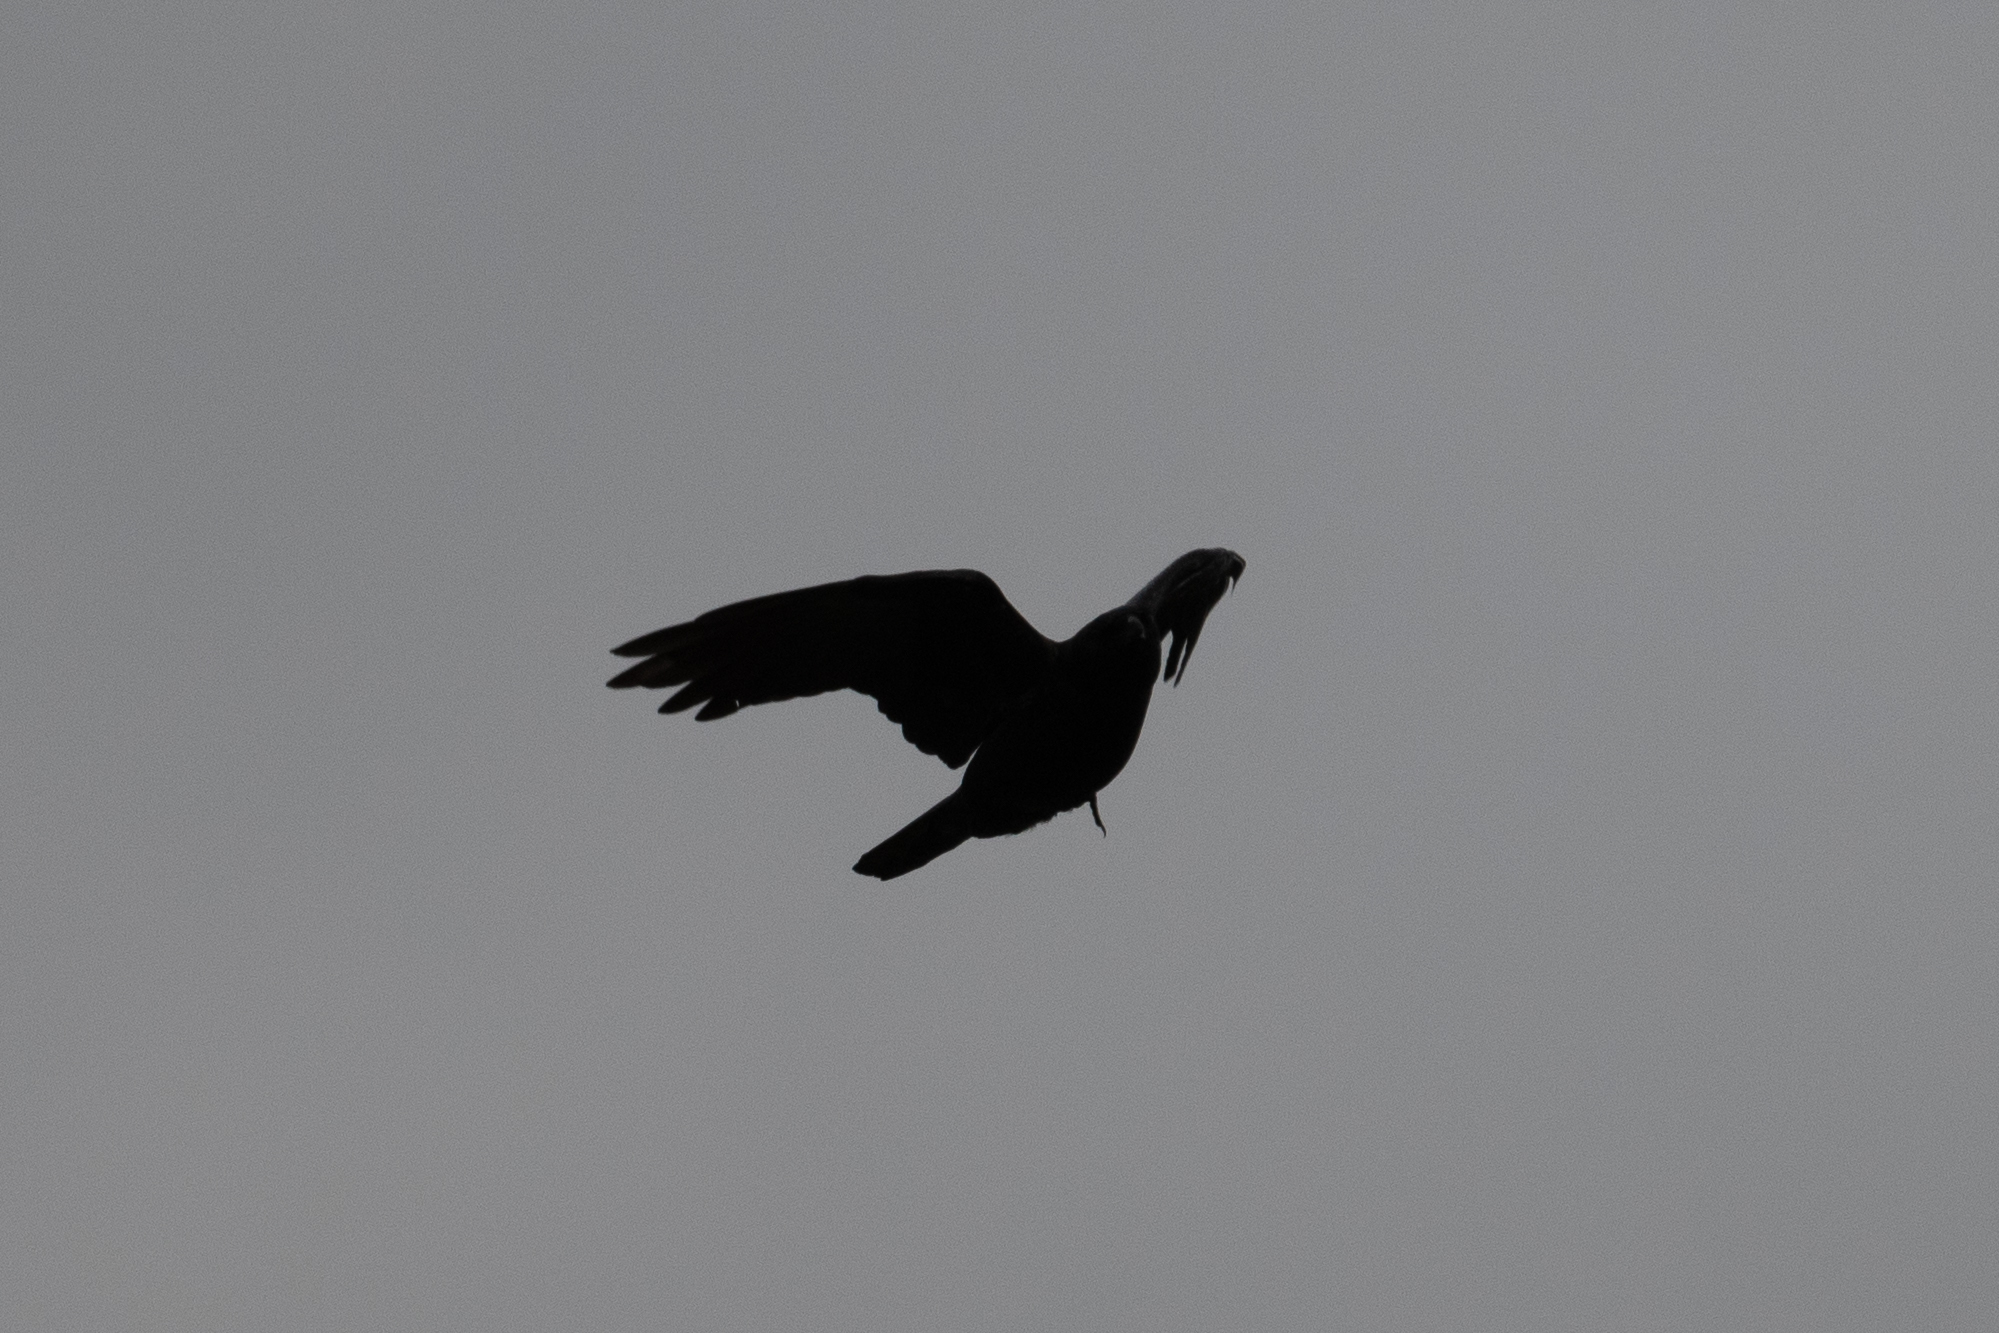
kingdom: Animalia
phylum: Chordata
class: Aves
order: Passeriformes
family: Corvidae
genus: Corvus
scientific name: Corvus brachyrhynchos
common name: American crow
